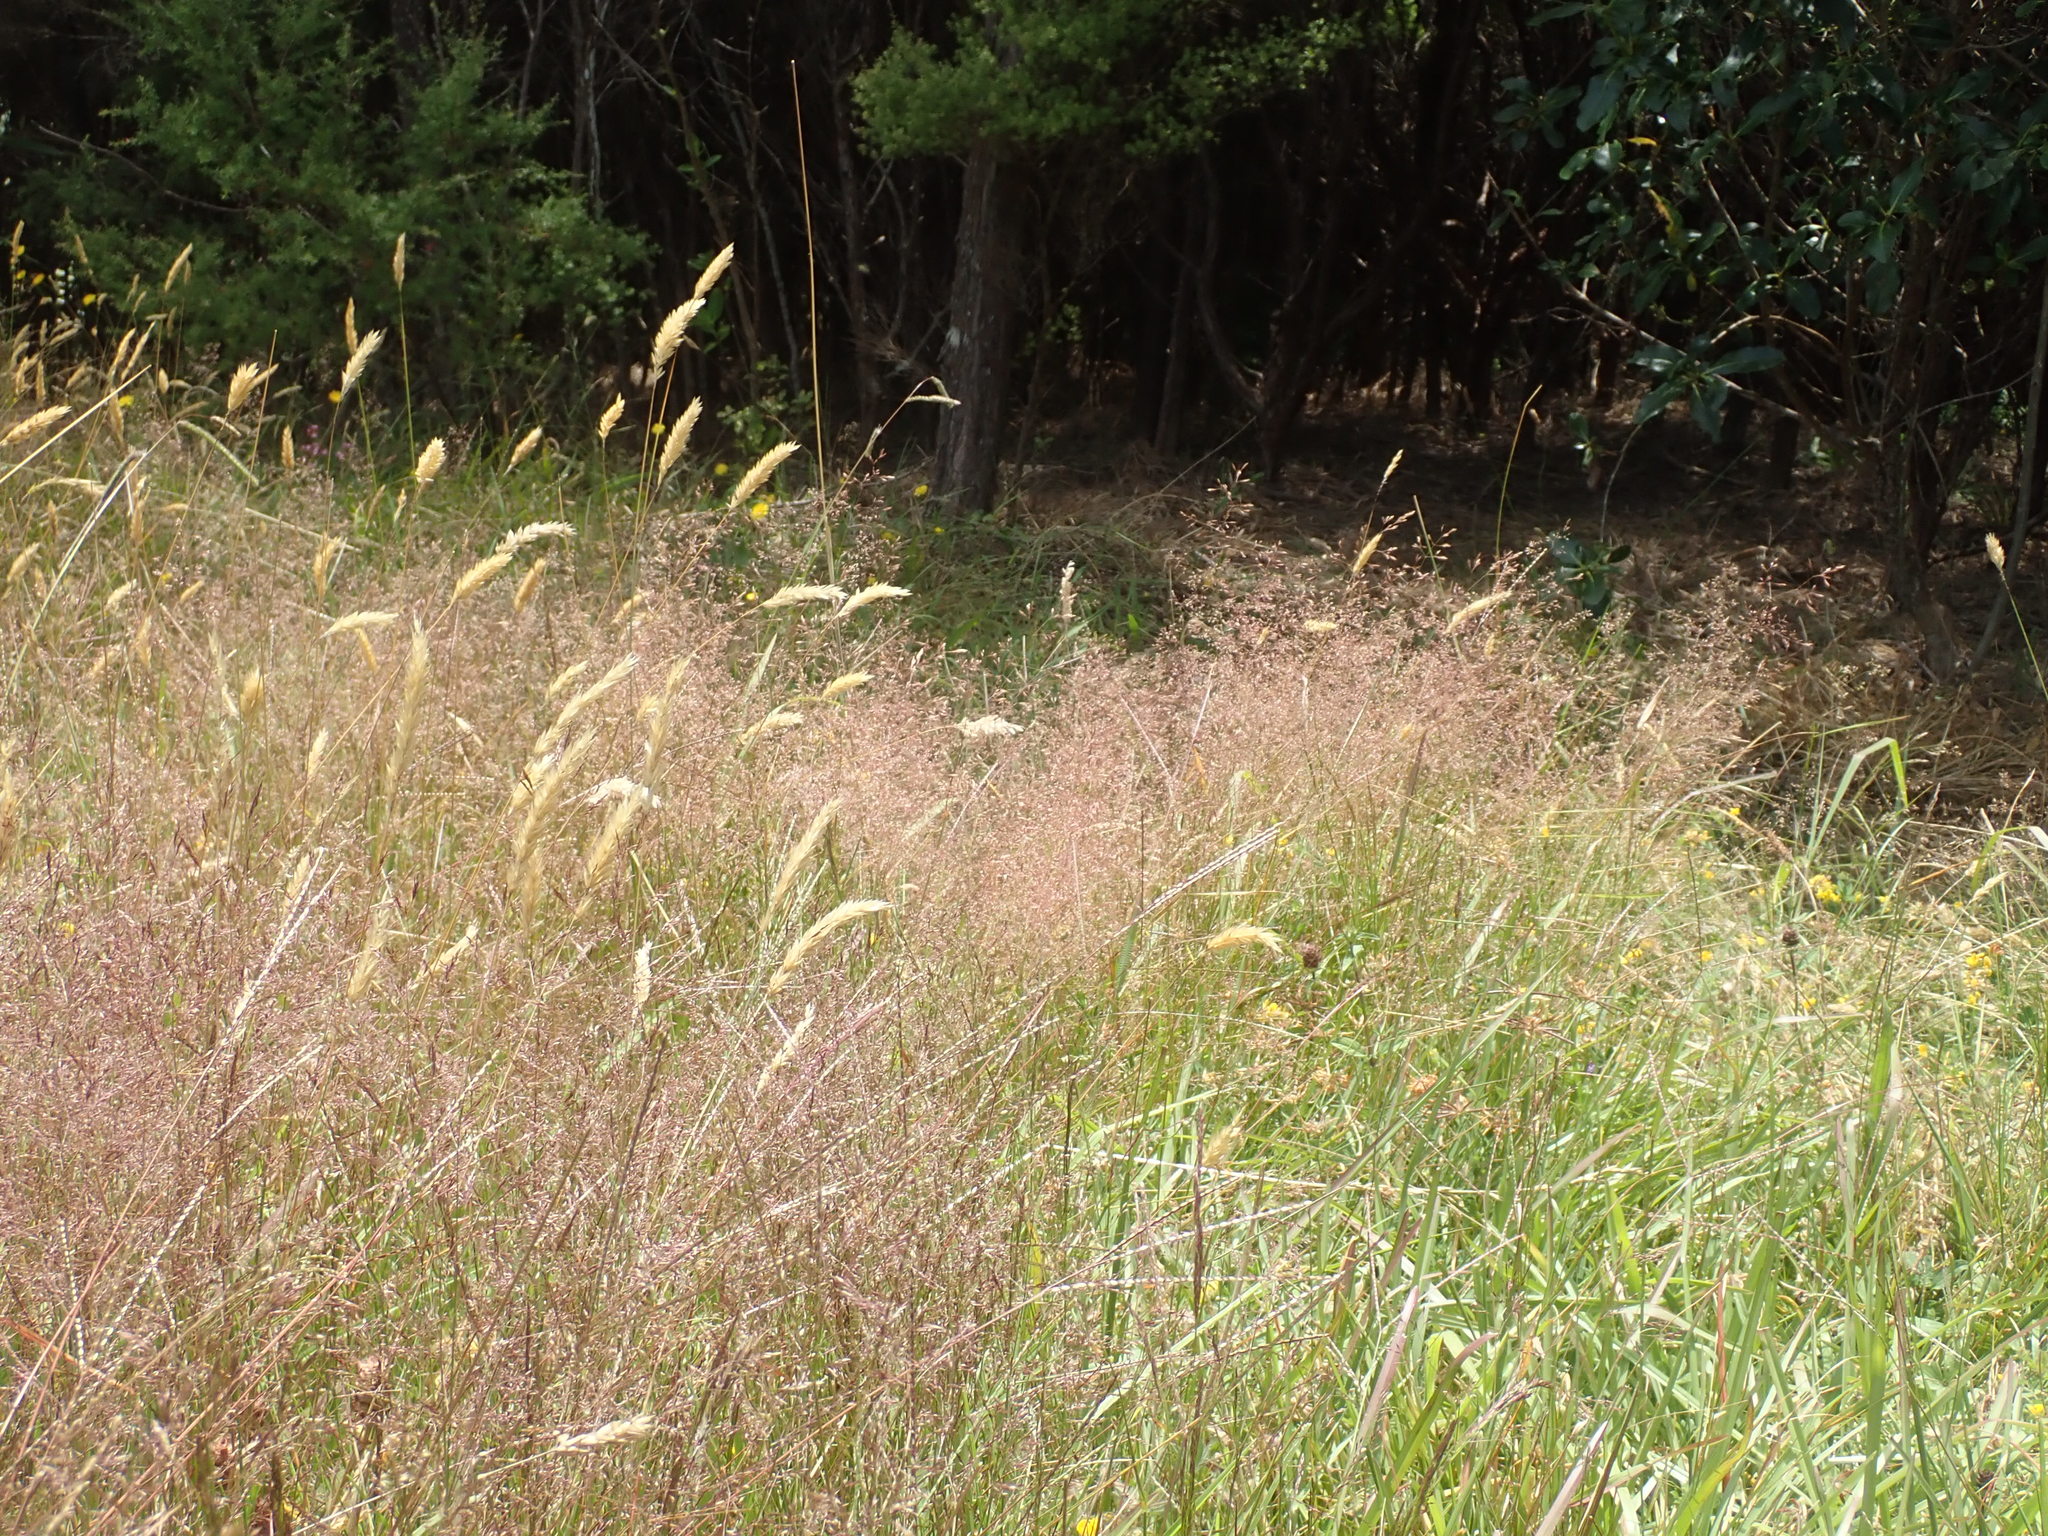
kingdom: Plantae
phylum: Tracheophyta
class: Liliopsida
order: Poales
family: Poaceae
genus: Agrostis
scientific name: Agrostis capillaris
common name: Colonial bentgrass
